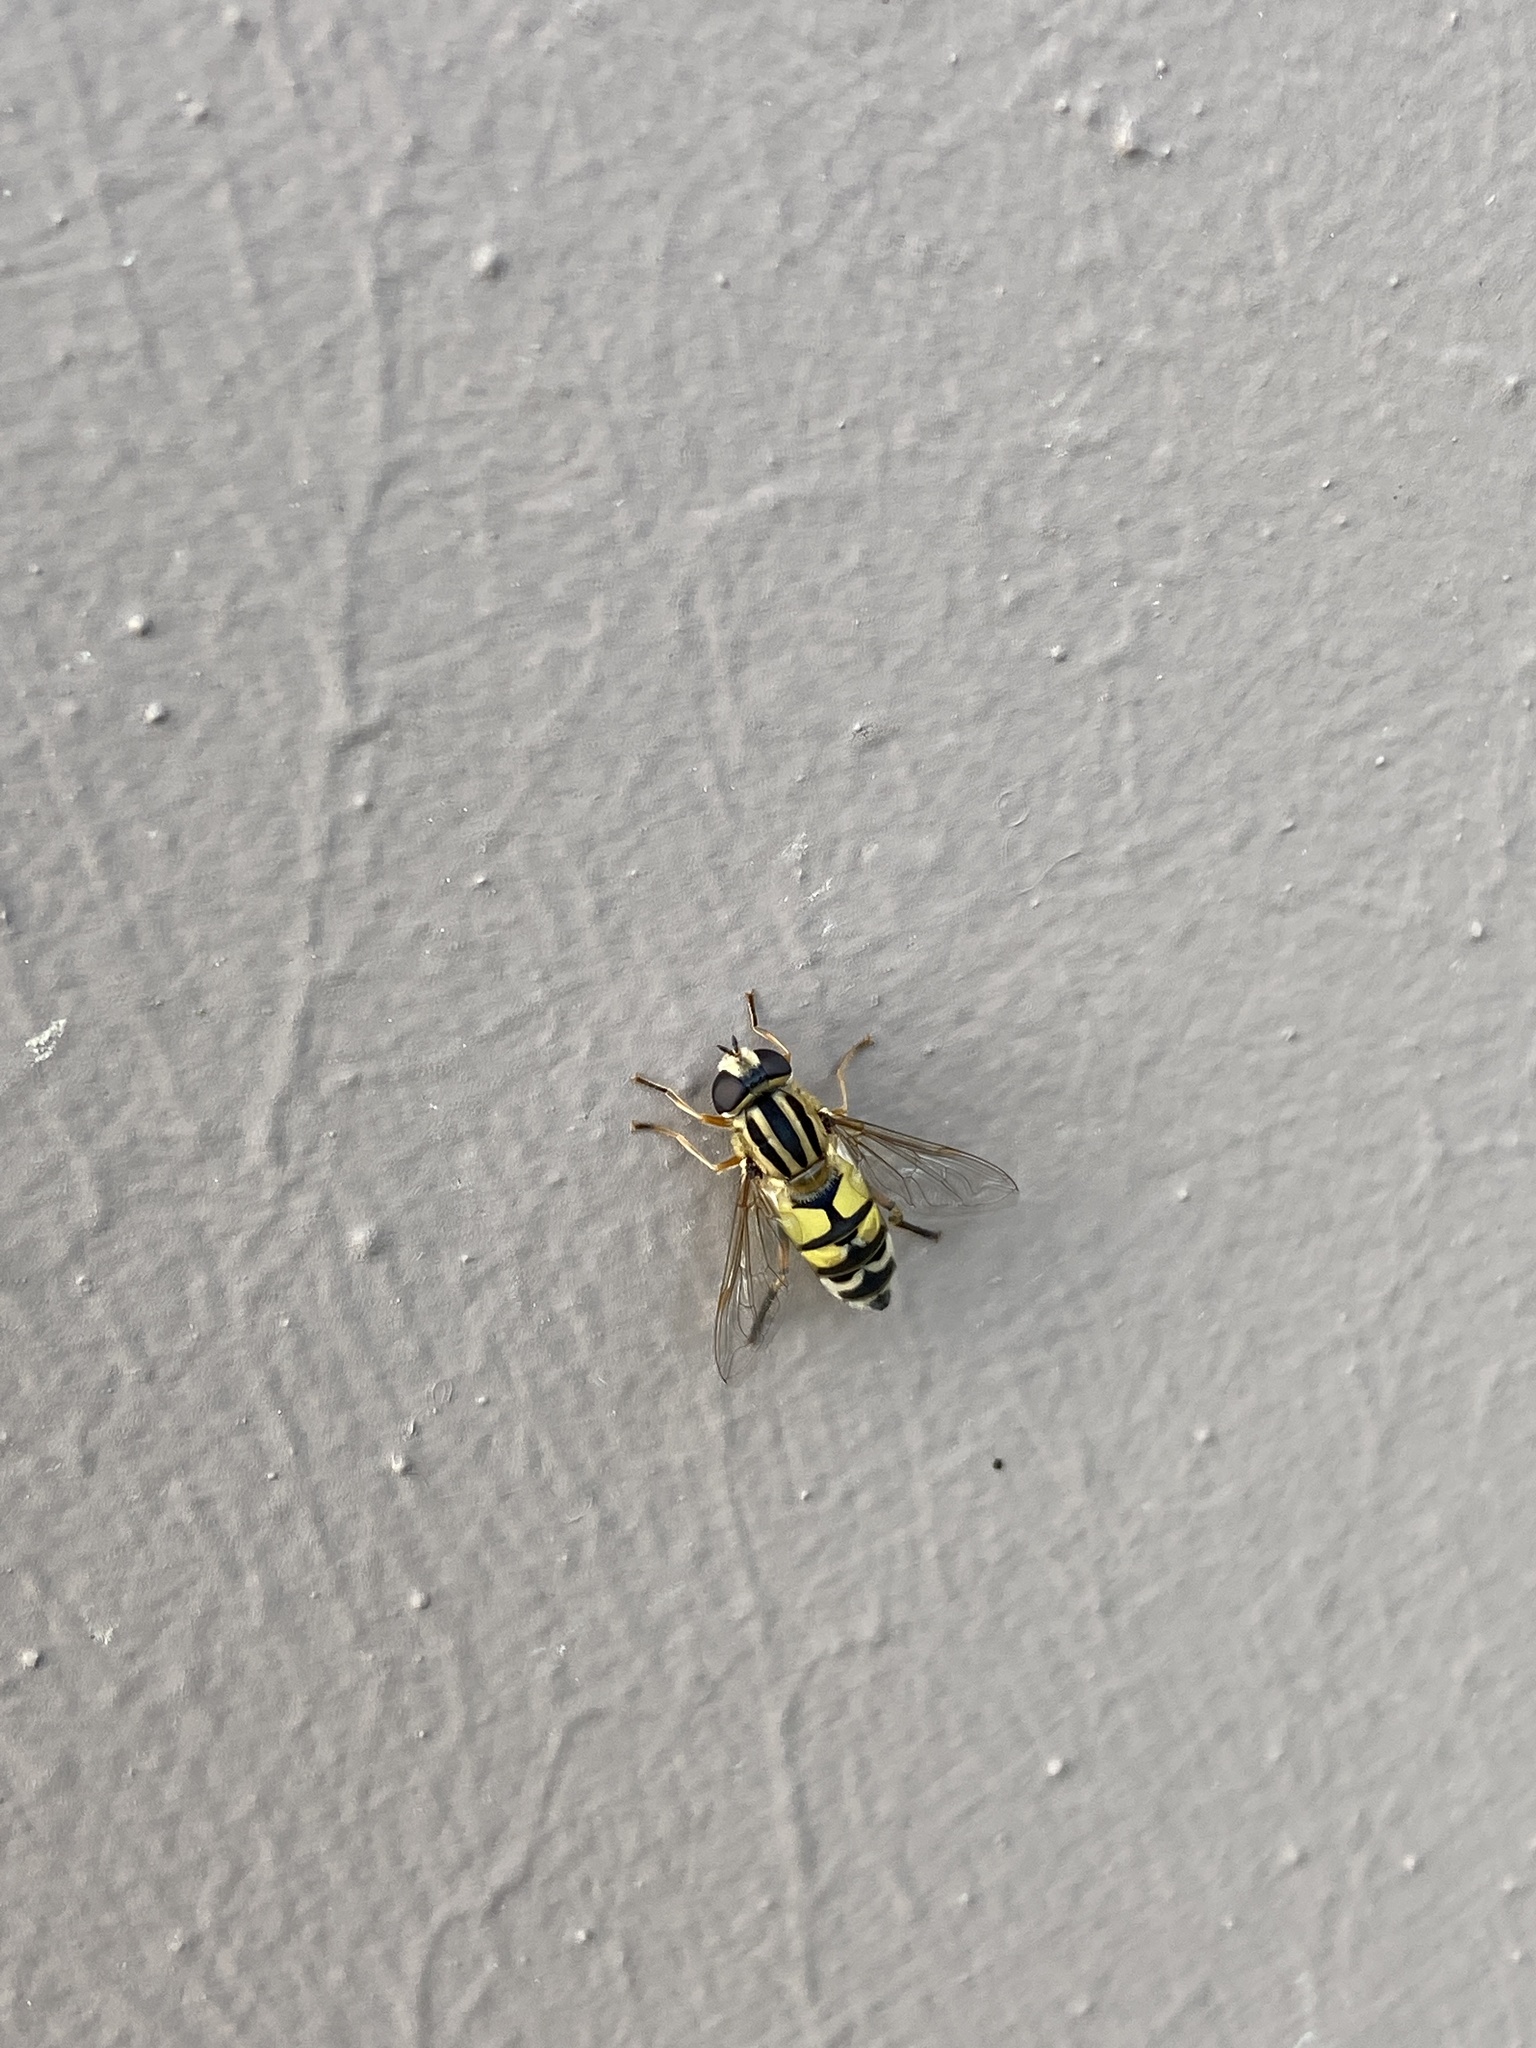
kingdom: Animalia
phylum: Arthropoda
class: Insecta
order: Diptera
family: Syrphidae
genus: Helophilus
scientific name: Helophilus trivittatus
